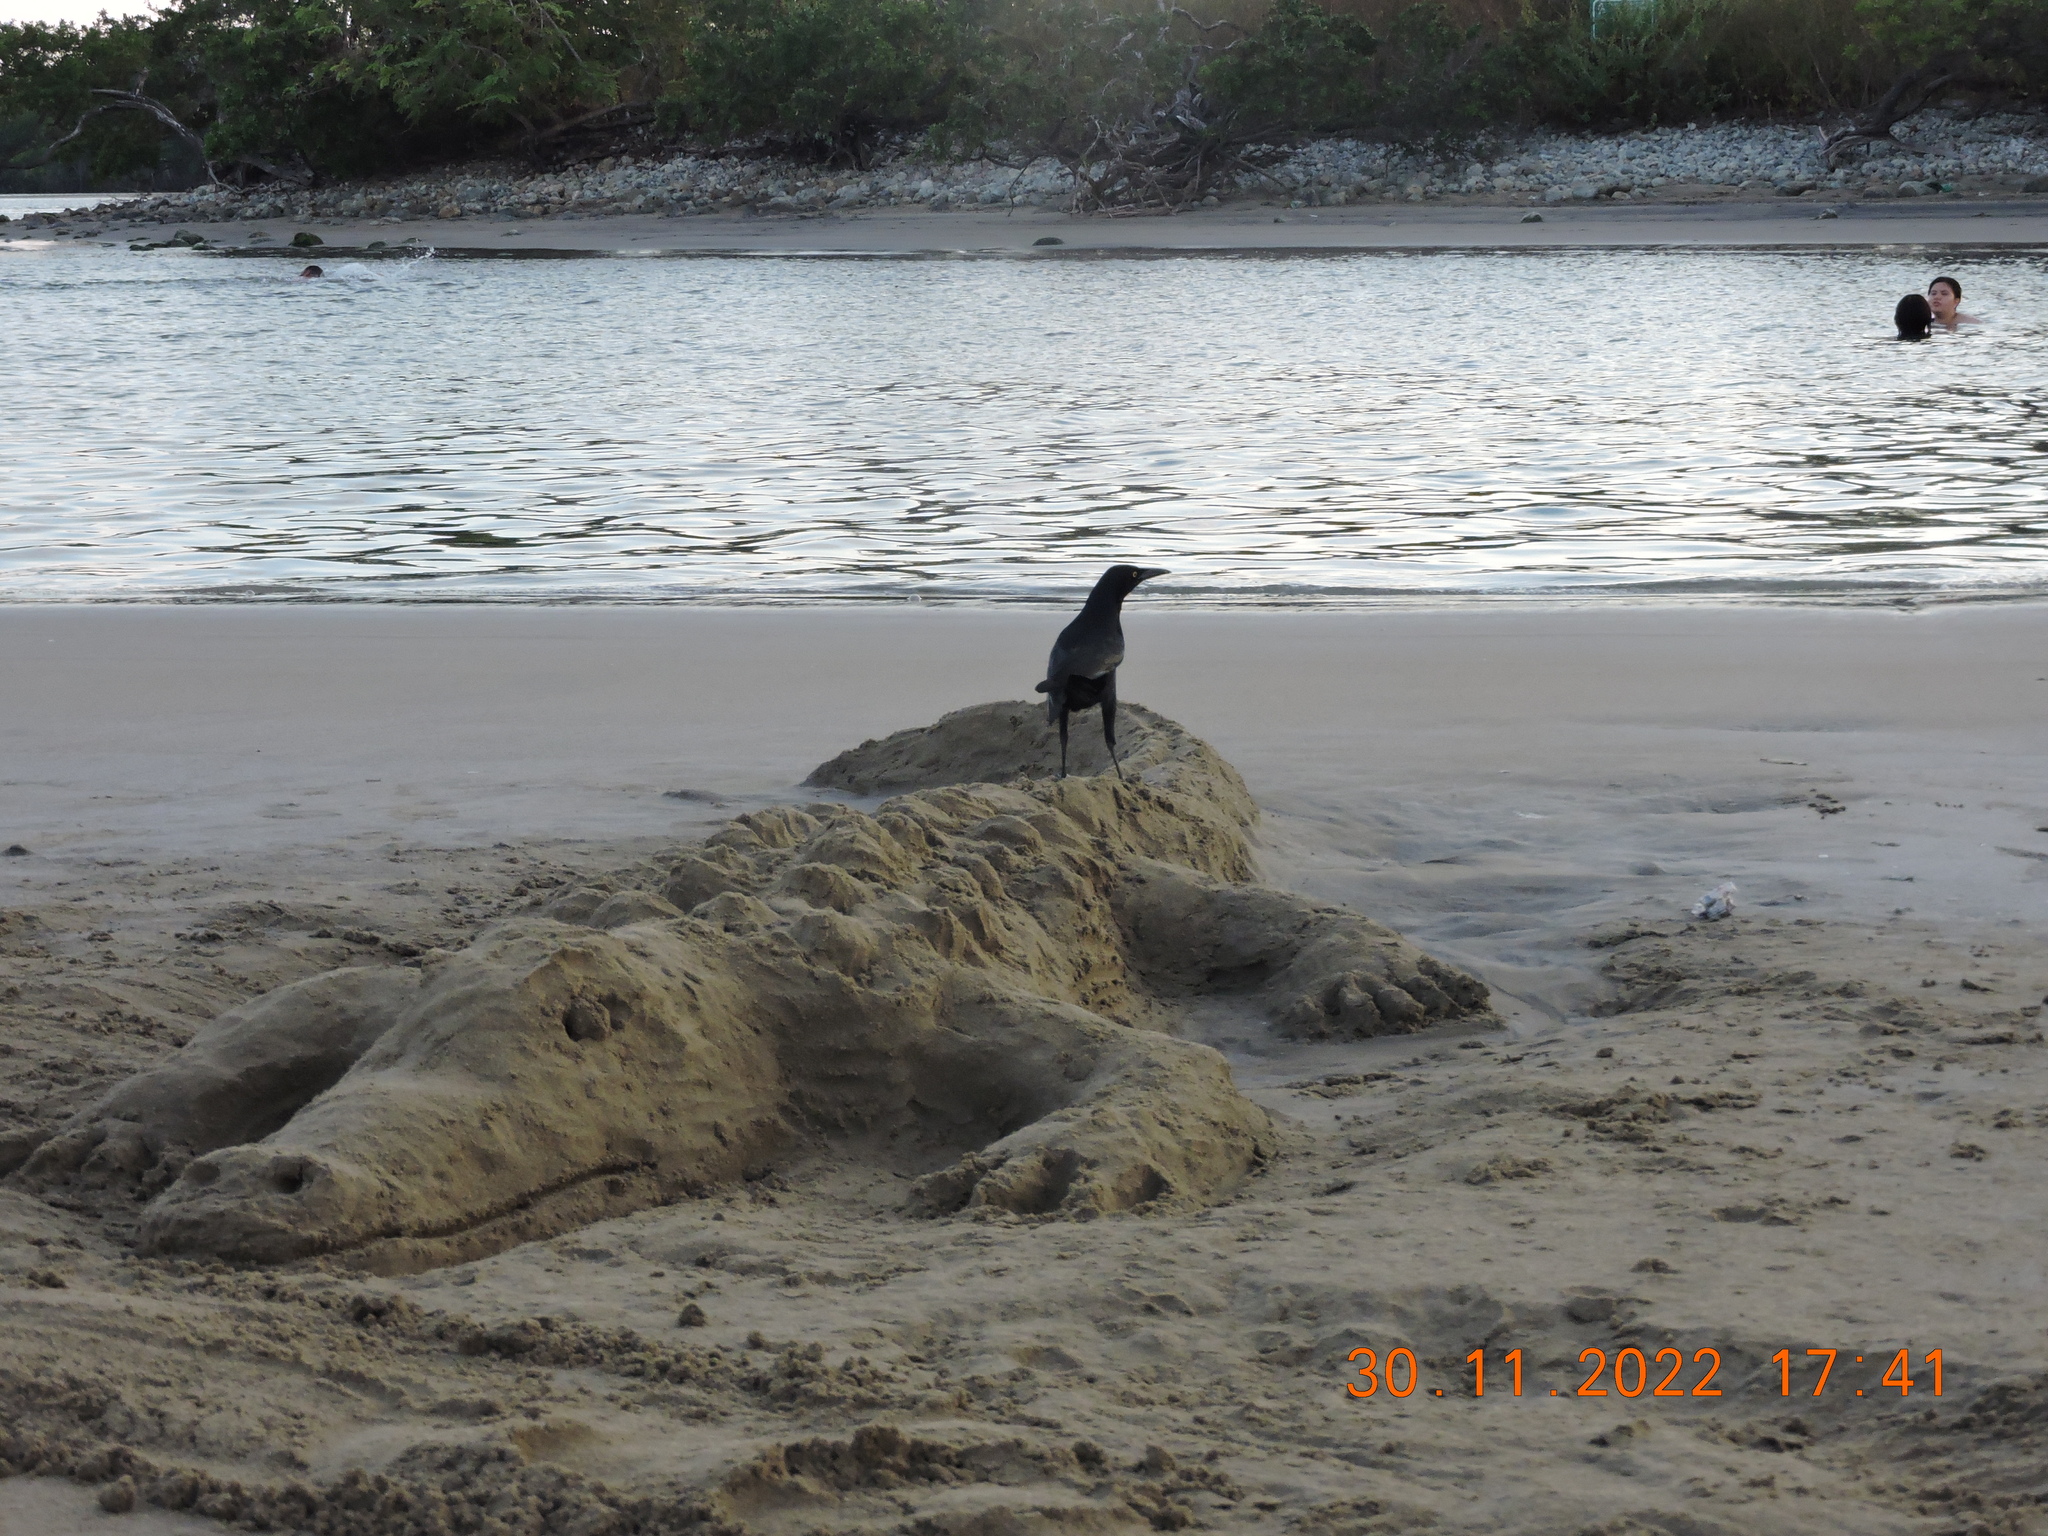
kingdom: Animalia
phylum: Chordata
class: Aves
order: Passeriformes
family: Icteridae
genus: Quiscalus
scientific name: Quiscalus mexicanus
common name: Great-tailed grackle
